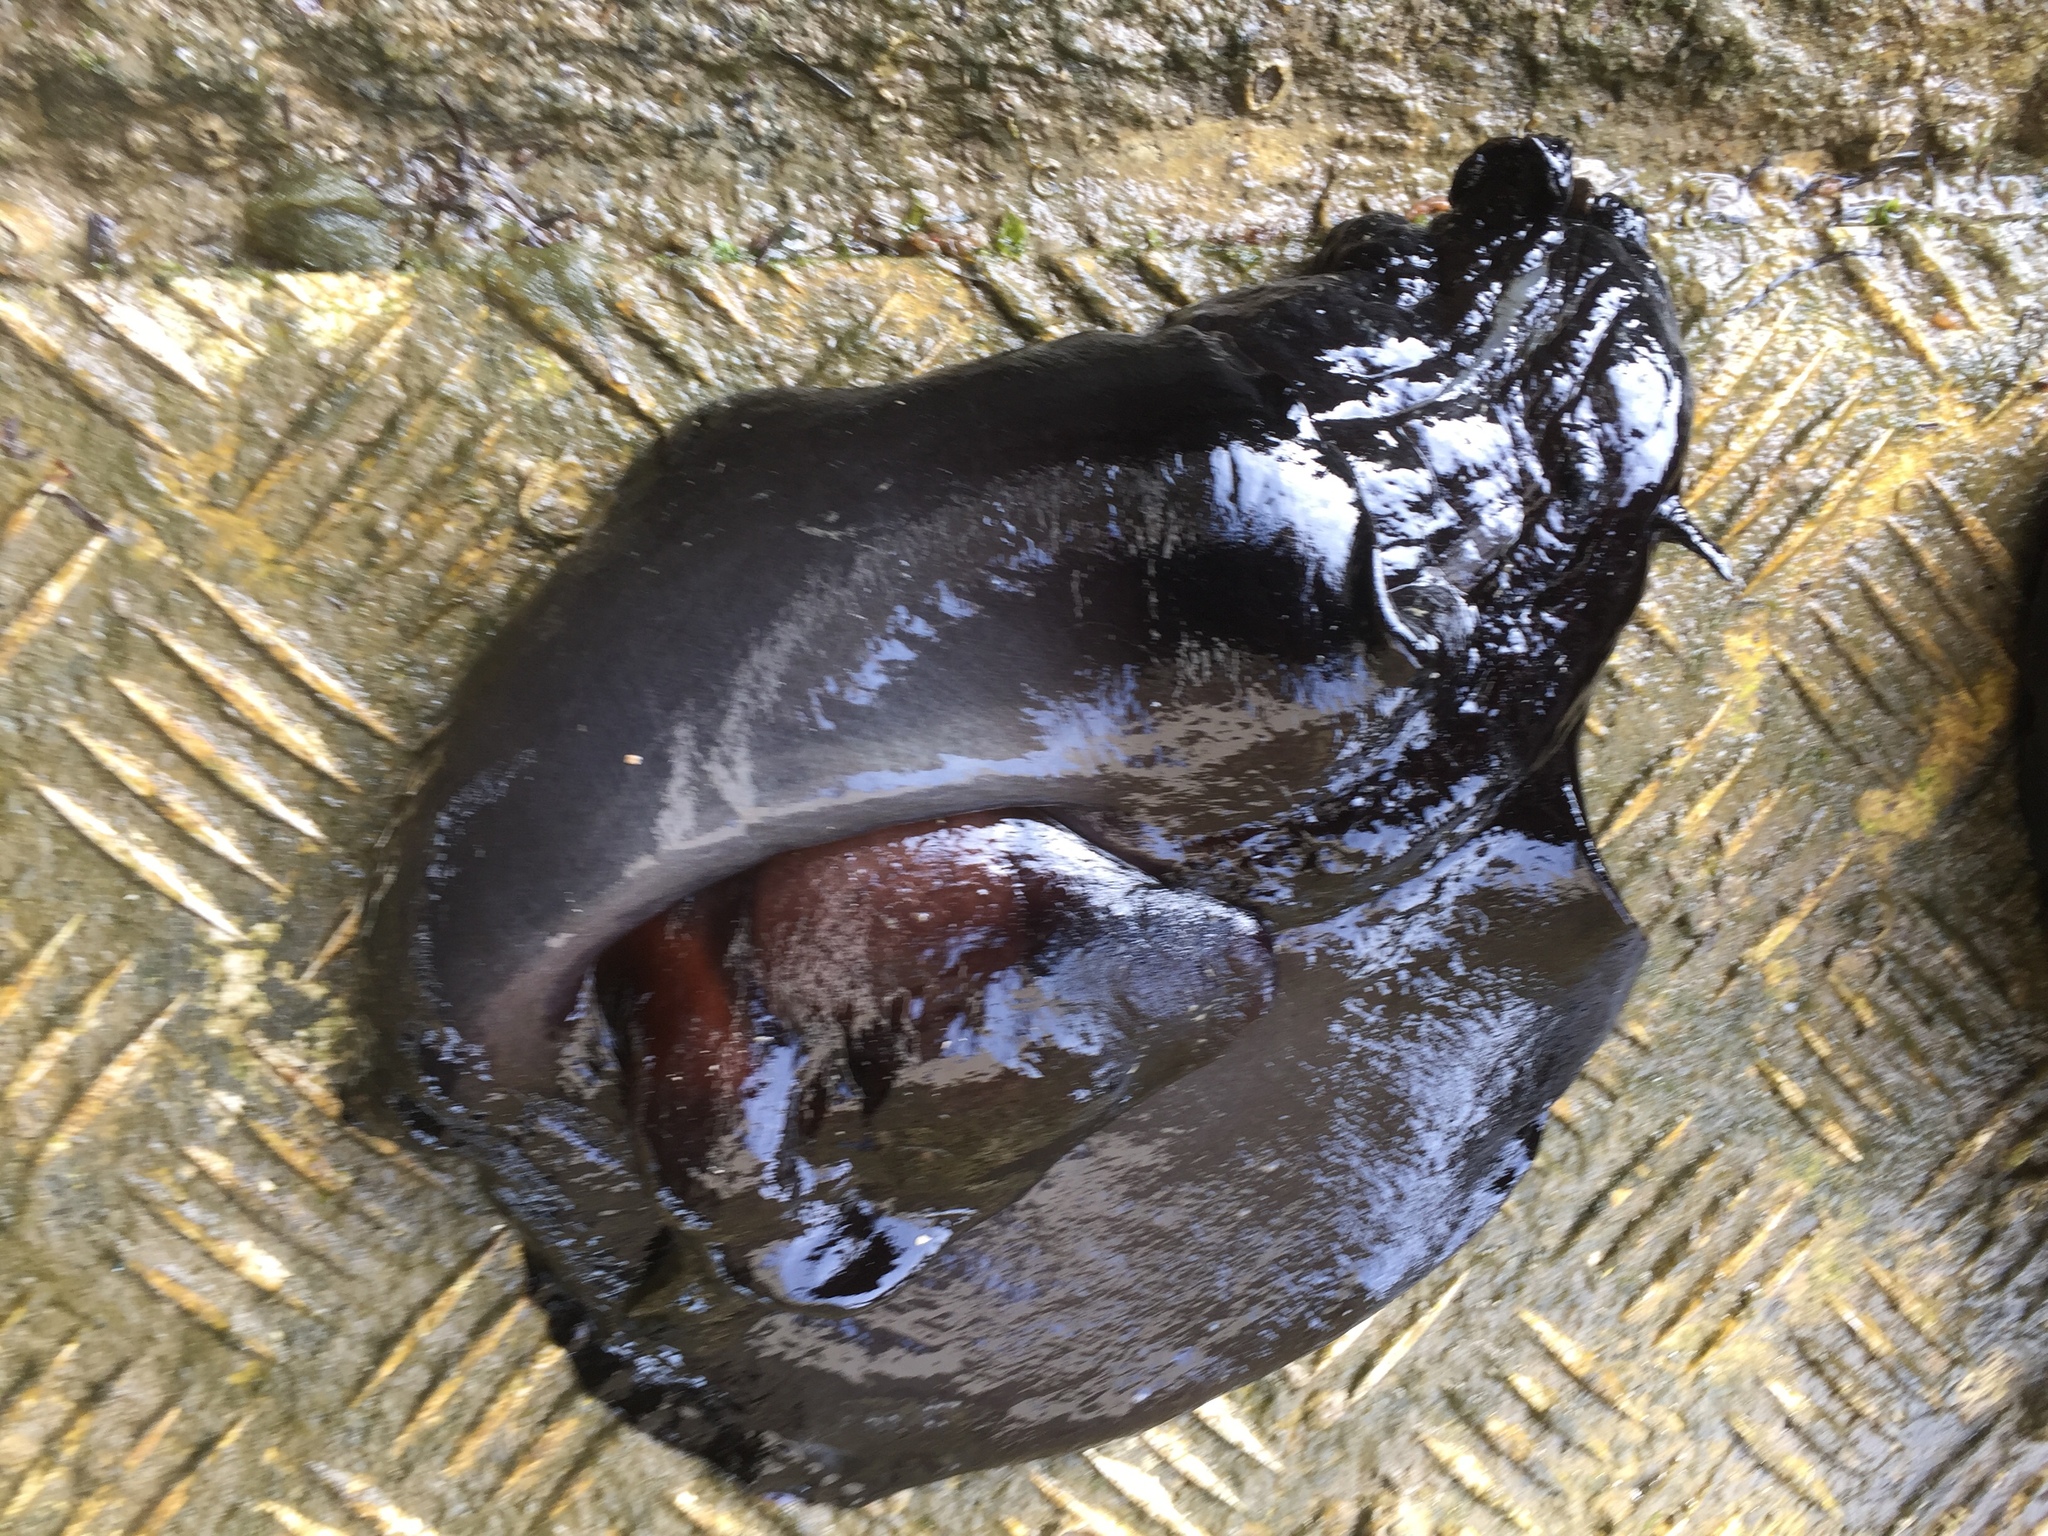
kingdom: Animalia
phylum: Mollusca
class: Gastropoda
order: Aplysiida
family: Aplysiidae
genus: Aplysia
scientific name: Aplysia fasciata
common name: Banded sea hare
